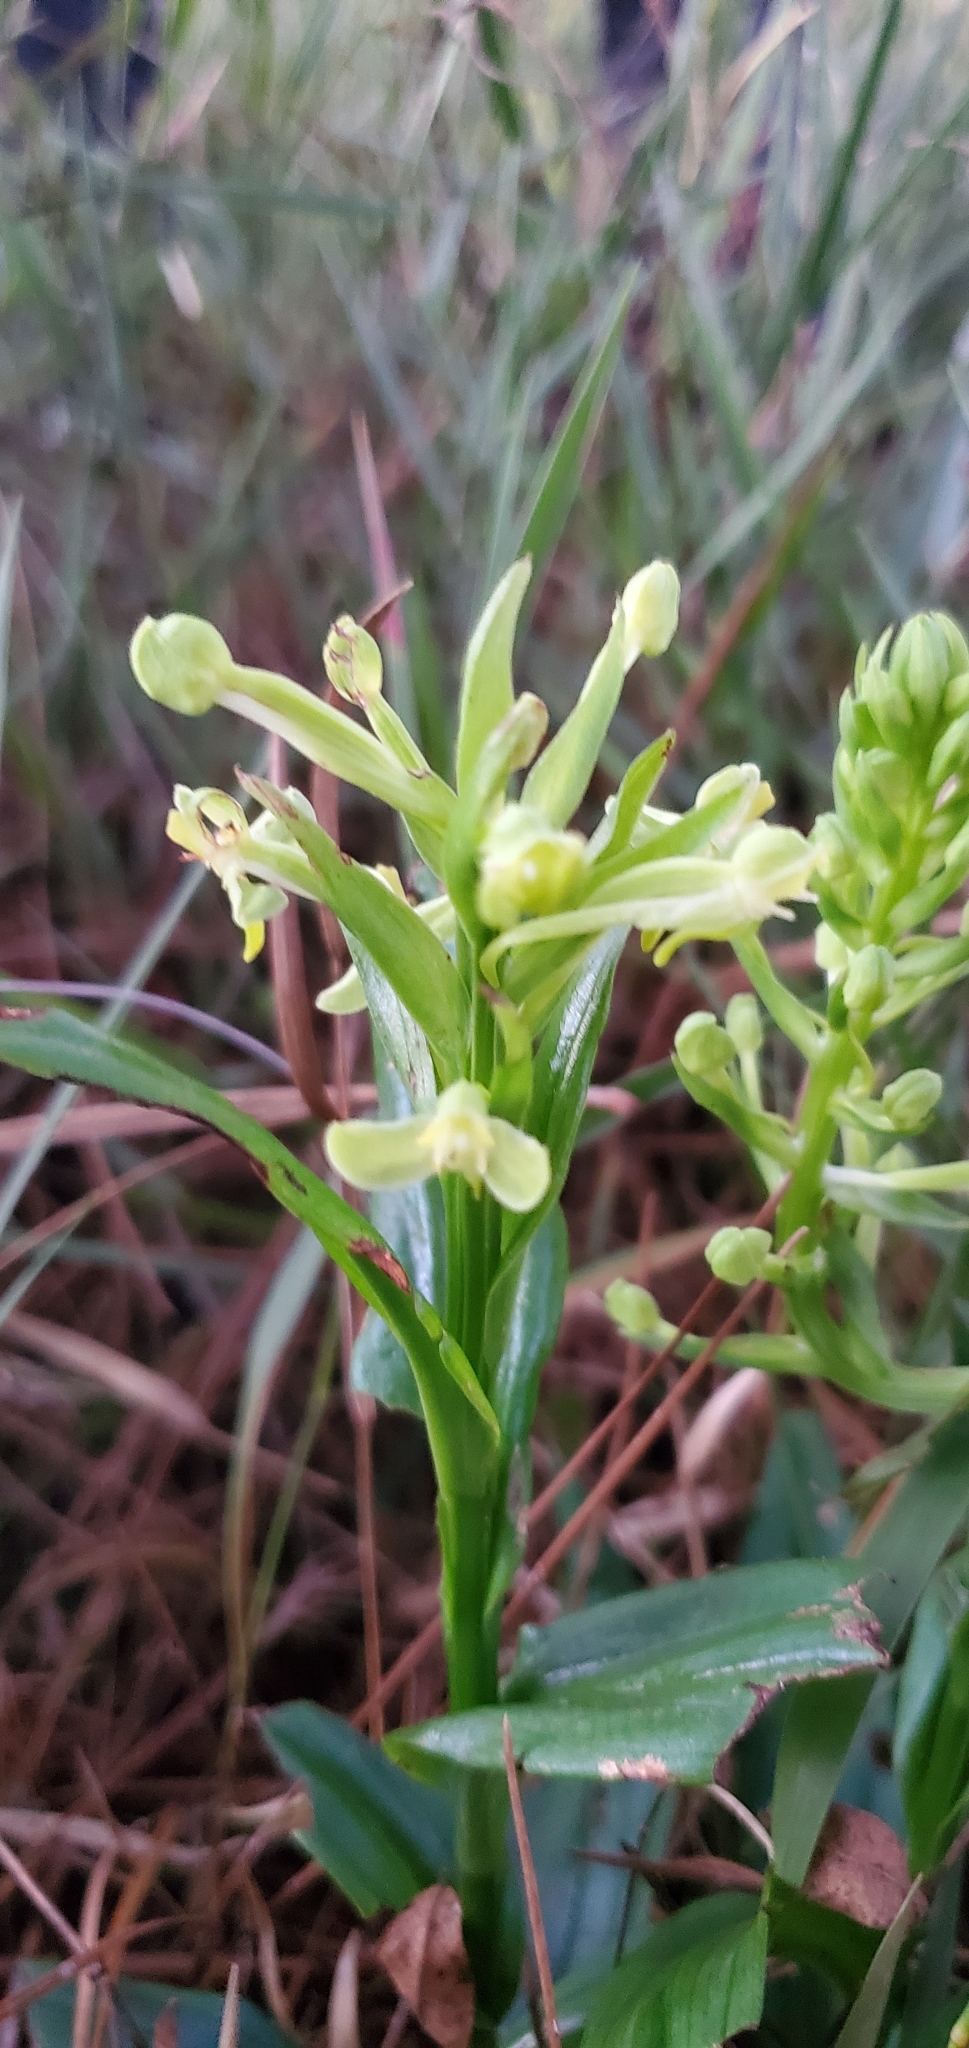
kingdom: Plantae
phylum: Tracheophyta
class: Liliopsida
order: Asparagales
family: Orchidaceae
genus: Habenaria
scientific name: Habenaria floribunda
